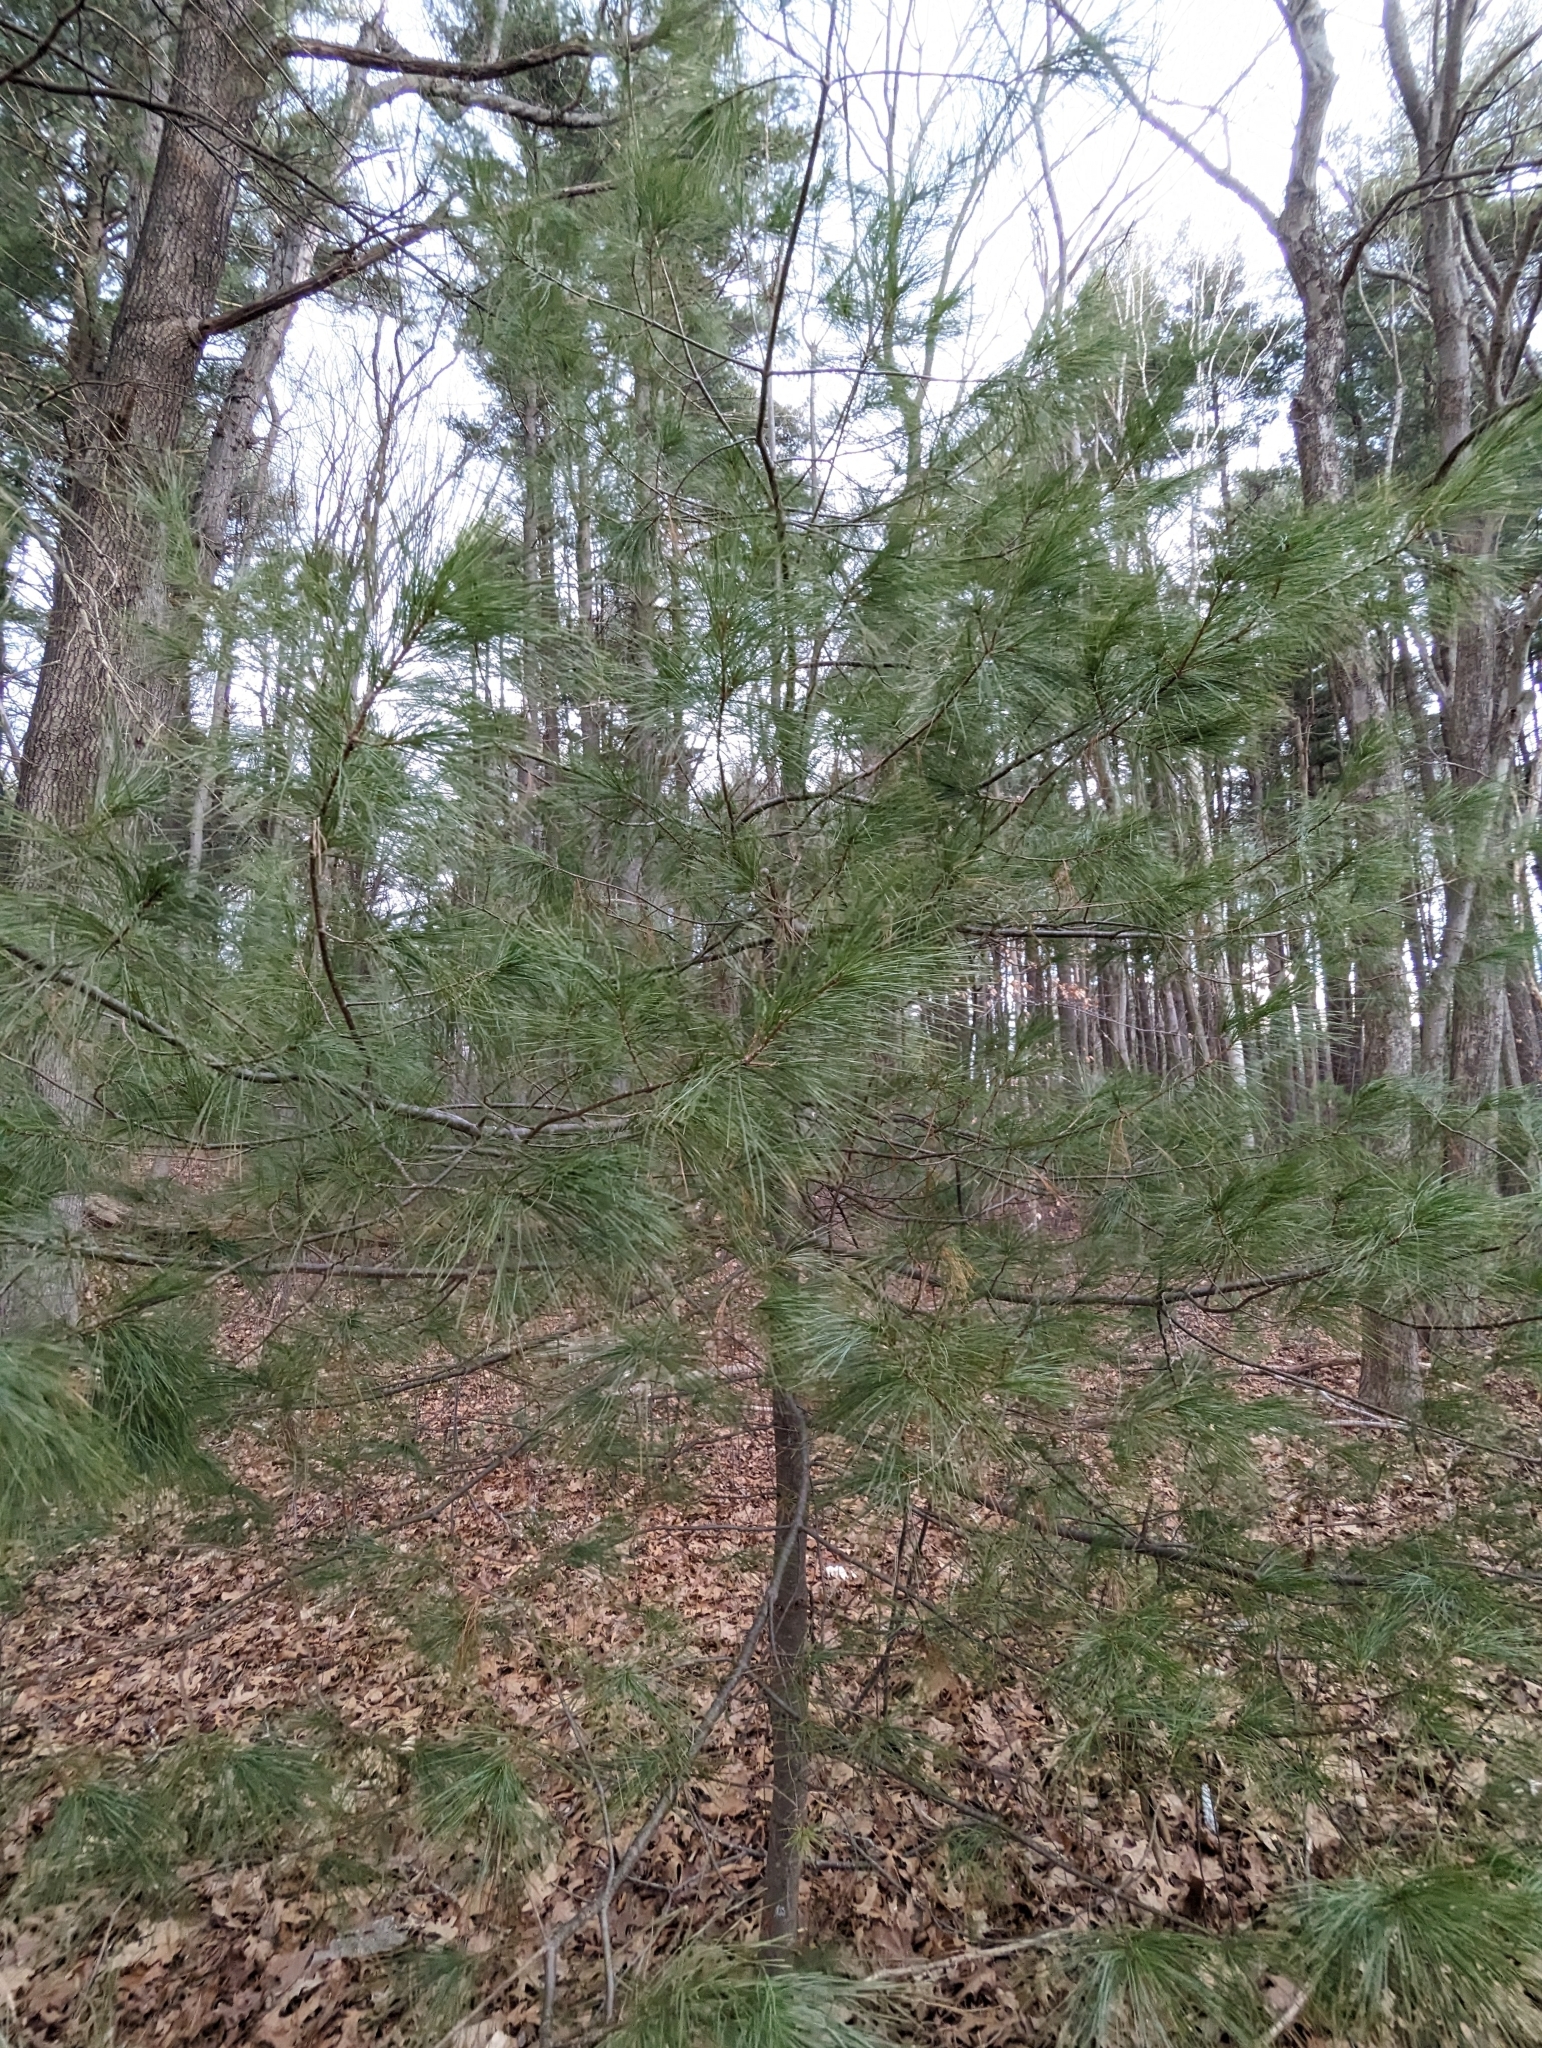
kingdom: Plantae
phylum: Tracheophyta
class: Pinopsida
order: Pinales
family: Pinaceae
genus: Pinus
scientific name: Pinus strobus
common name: Weymouth pine
